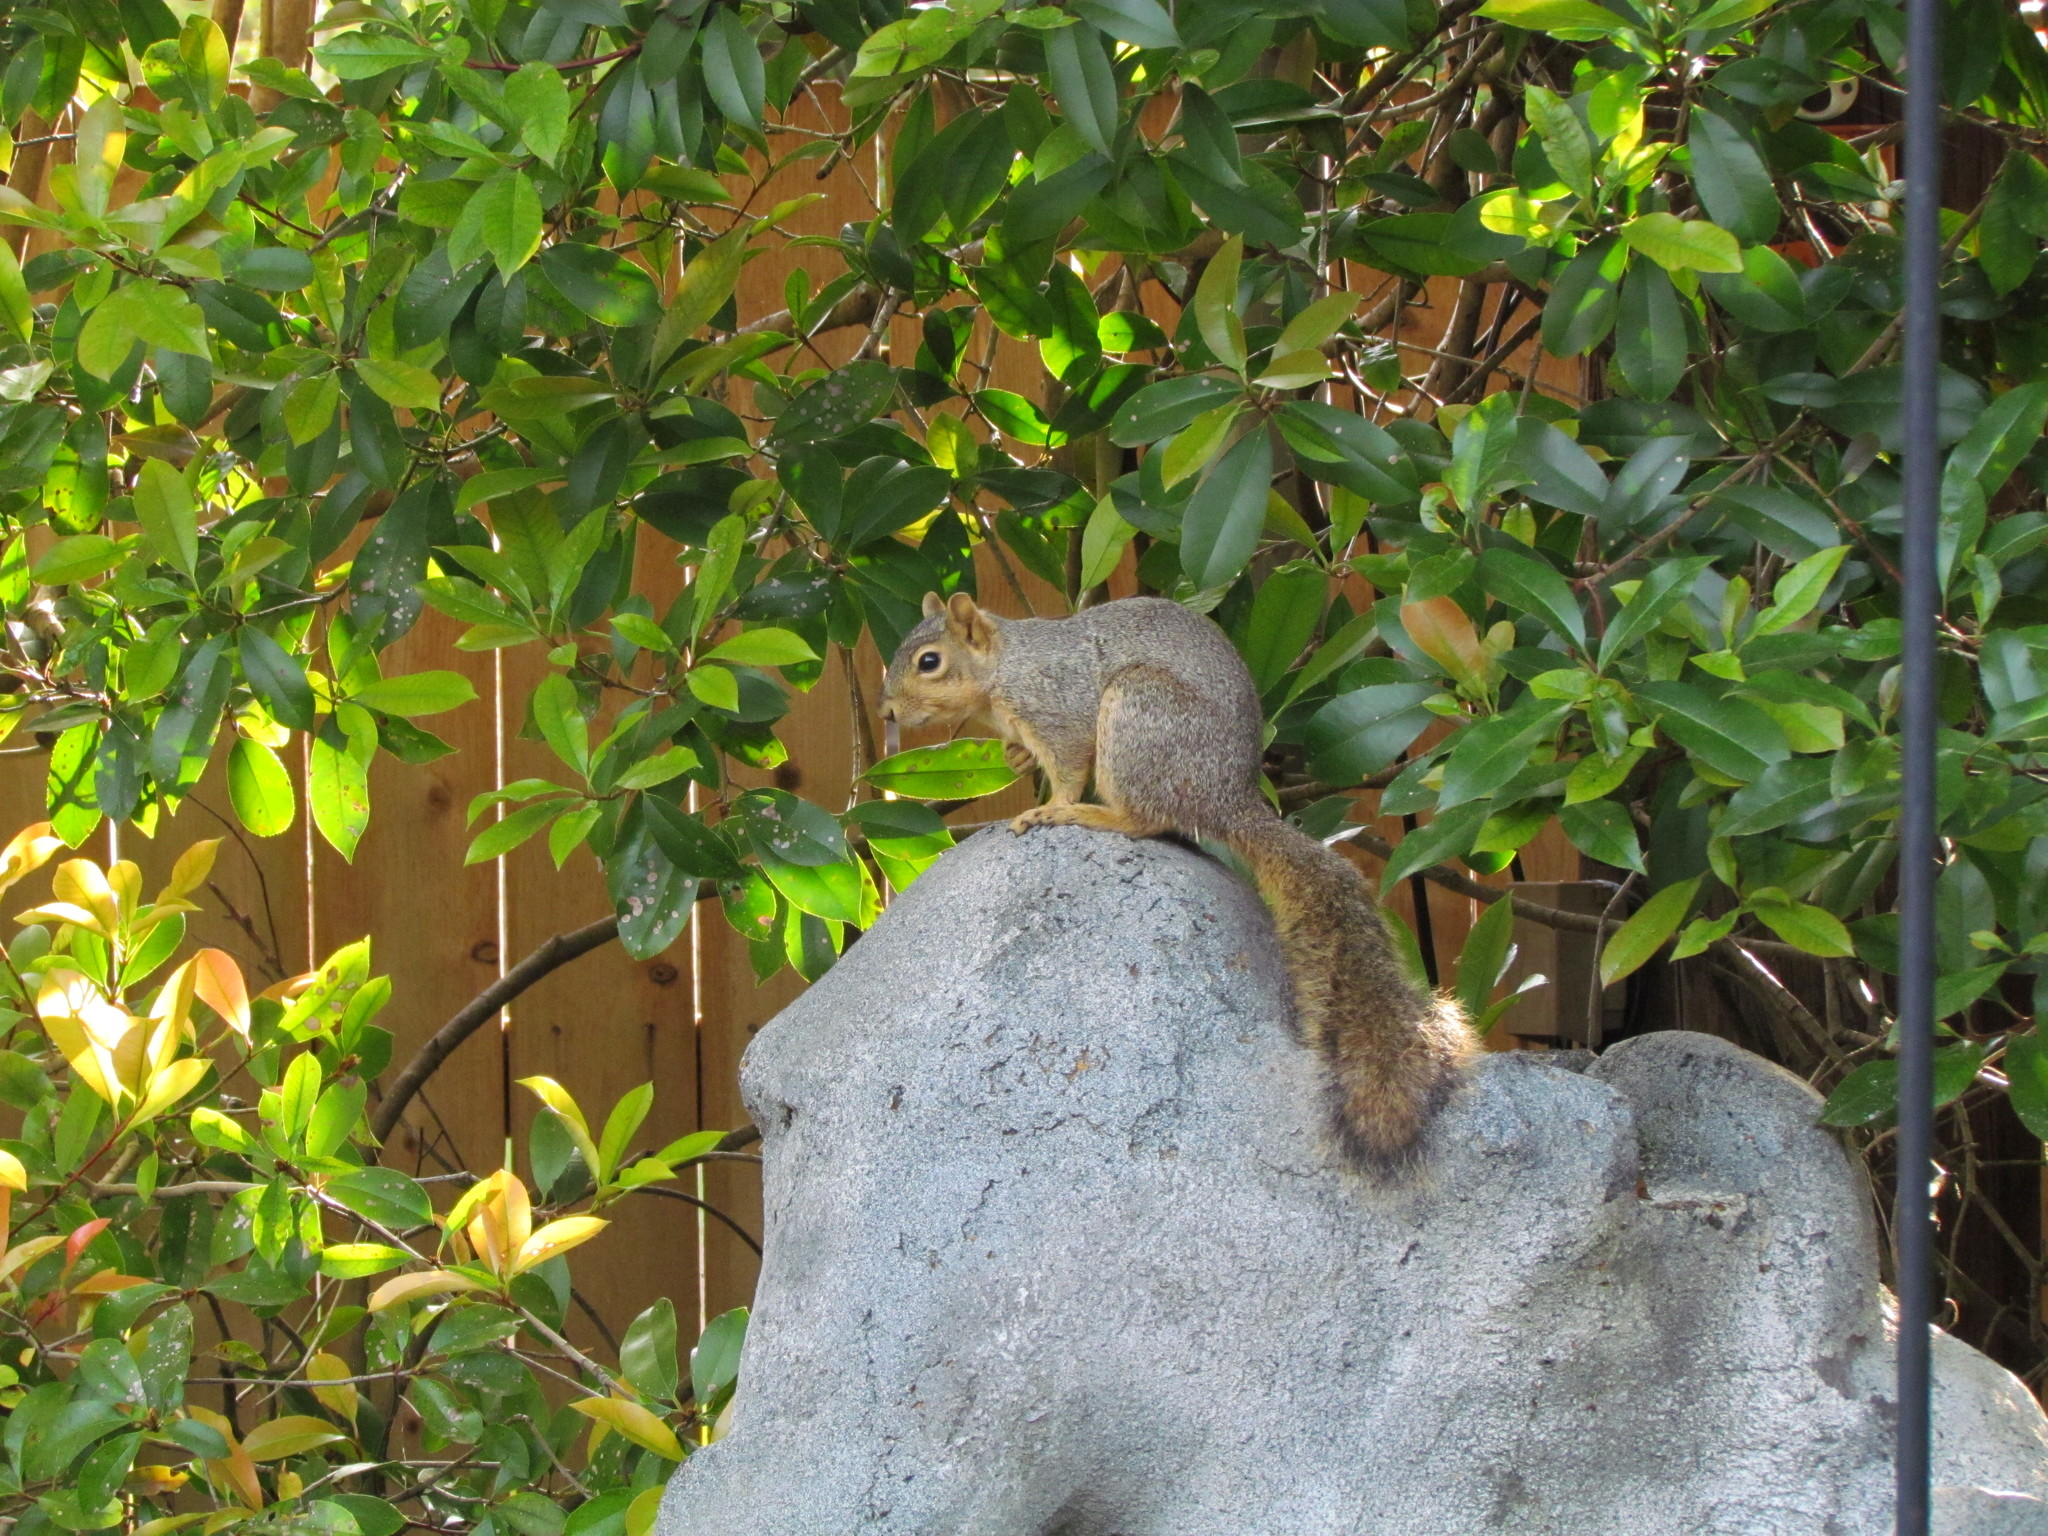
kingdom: Animalia
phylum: Chordata
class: Mammalia
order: Rodentia
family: Sciuridae
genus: Sciurus
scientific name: Sciurus niger
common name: Fox squirrel
